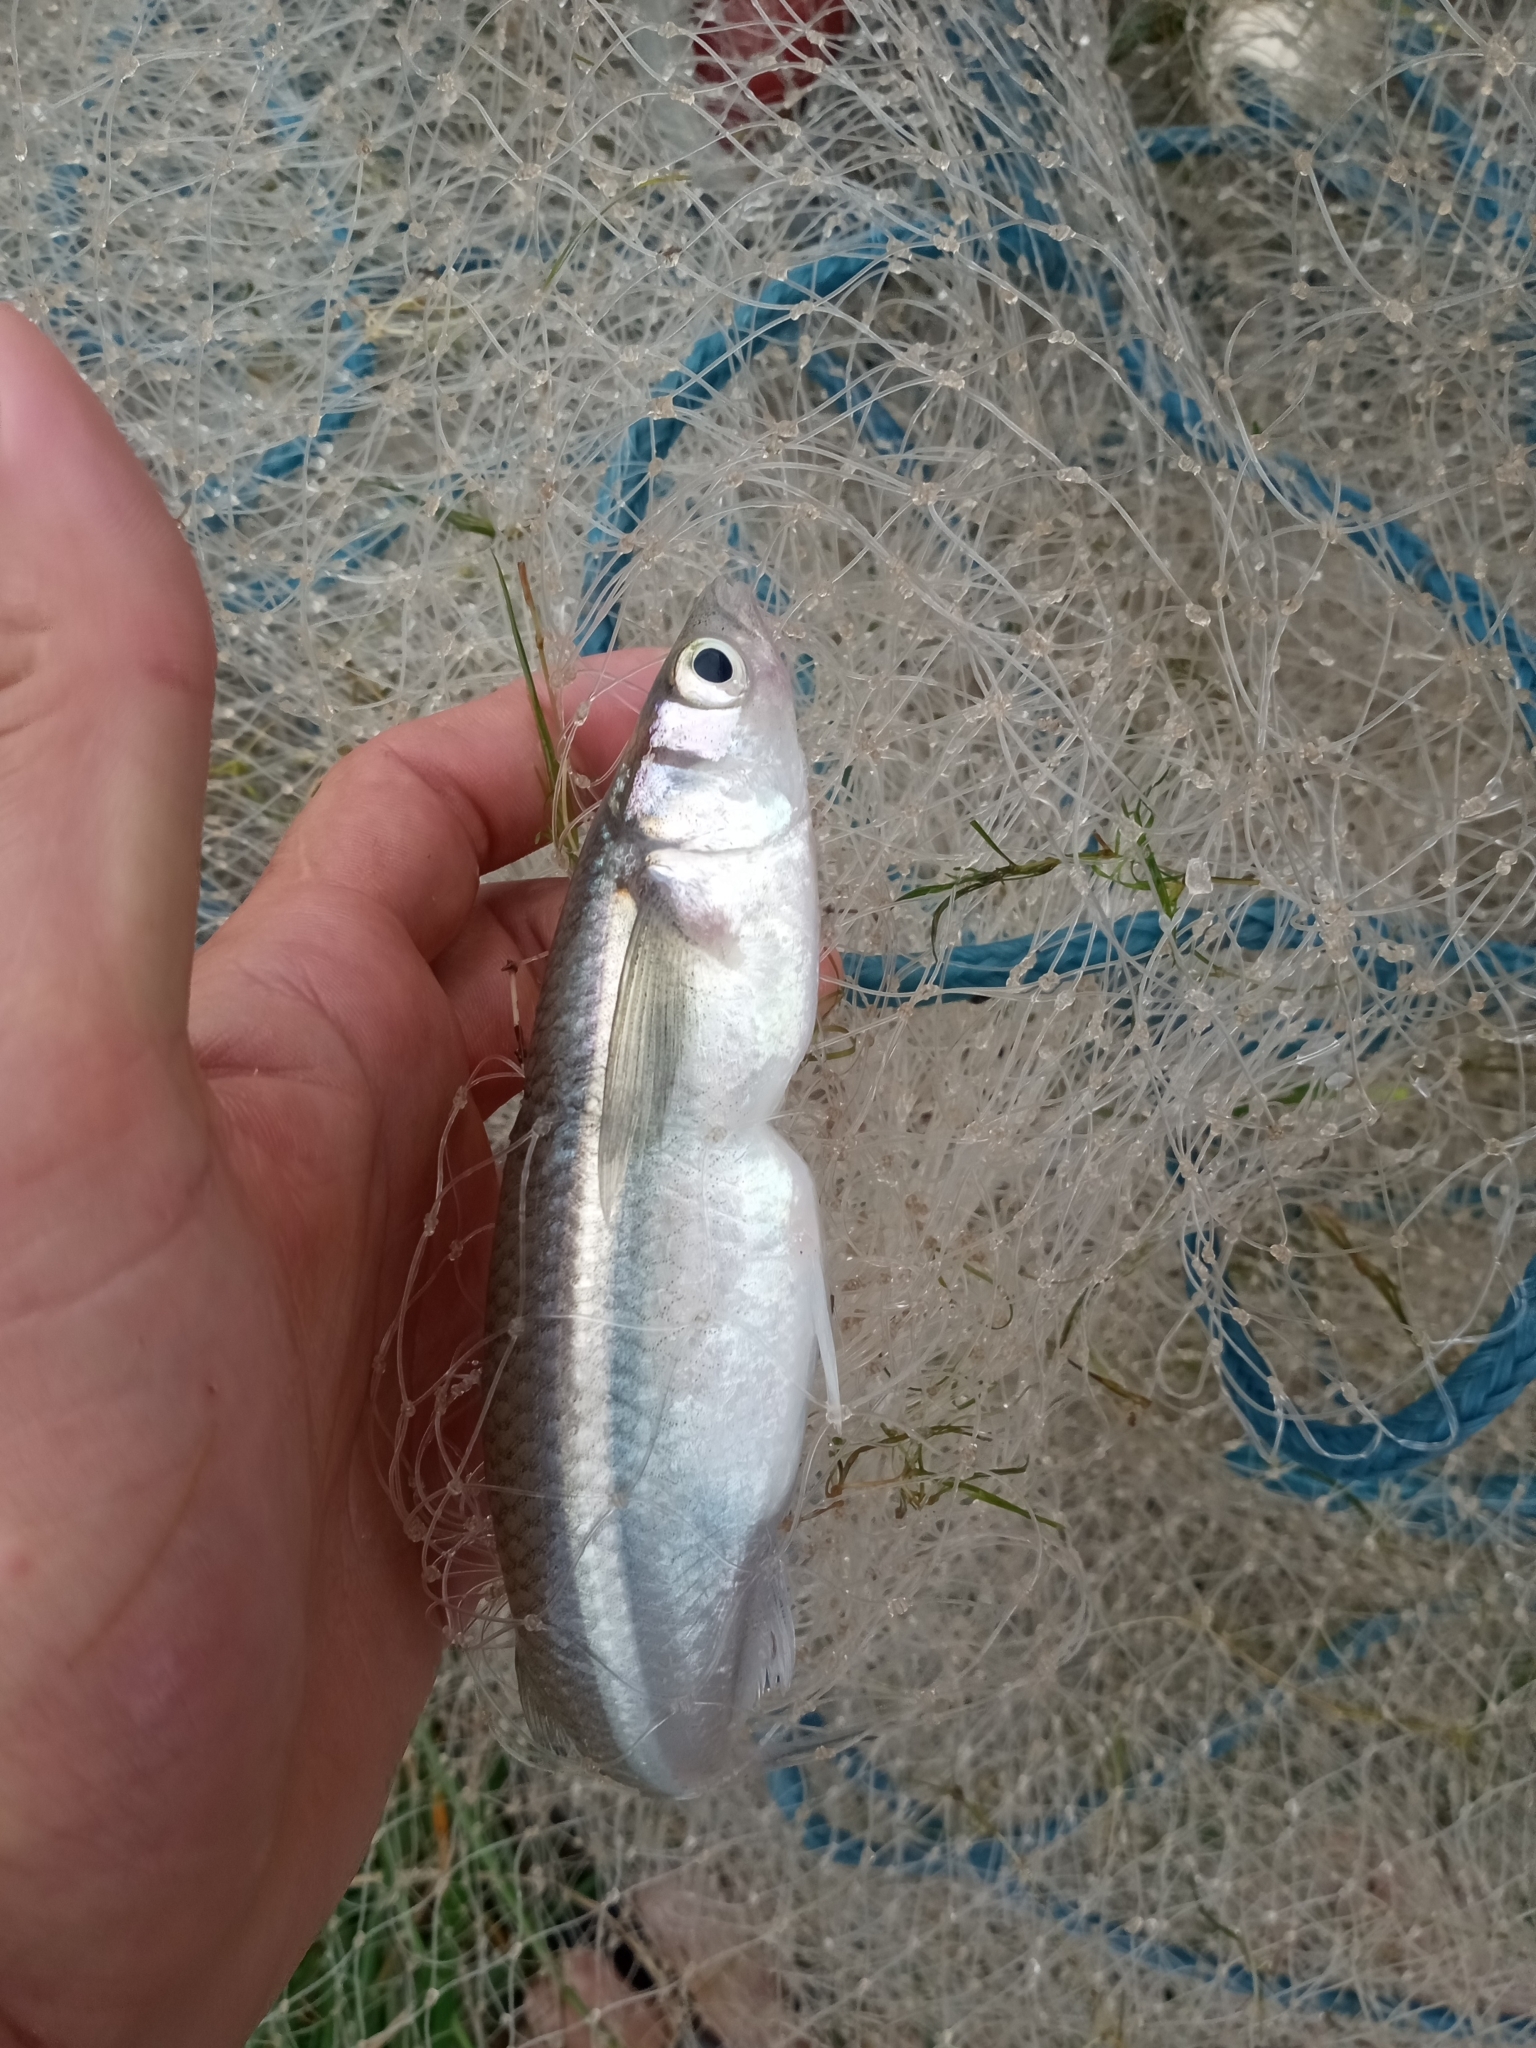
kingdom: Animalia
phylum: Chordata
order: Atheriniformes
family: Atherinopsidae
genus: Odontesthes
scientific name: Odontesthes bonariensis
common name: Argentinian silverside
